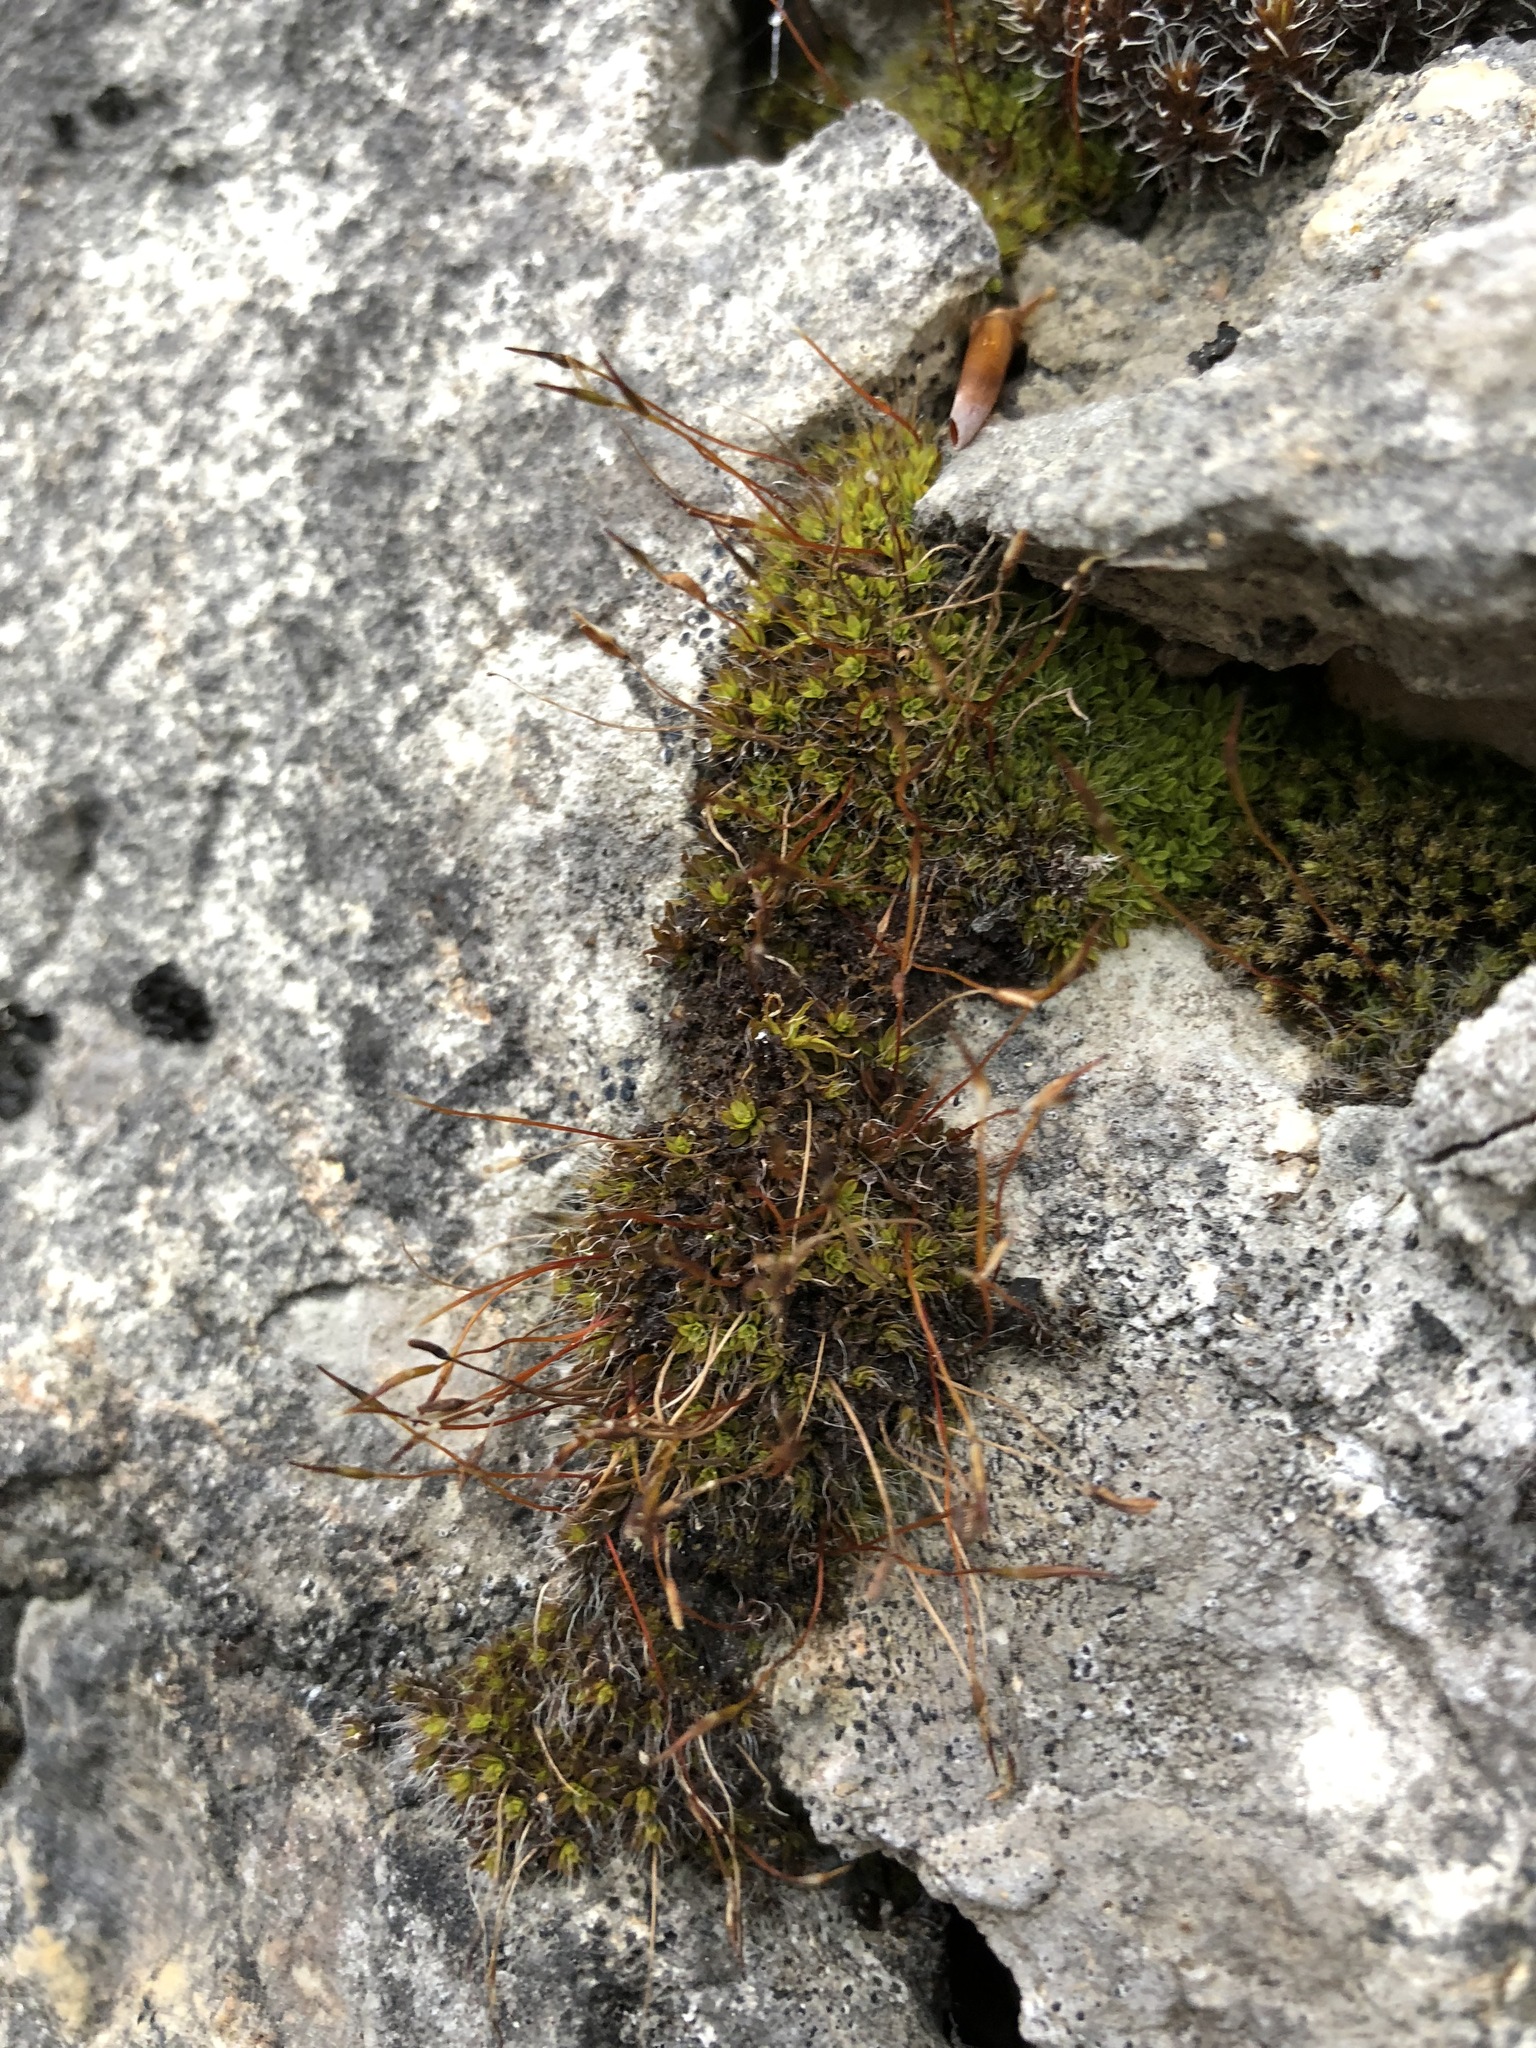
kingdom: Plantae
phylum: Bryophyta
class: Bryopsida
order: Pottiales
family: Pottiaceae
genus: Tortula
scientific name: Tortula muralis
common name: Wall screw-moss
